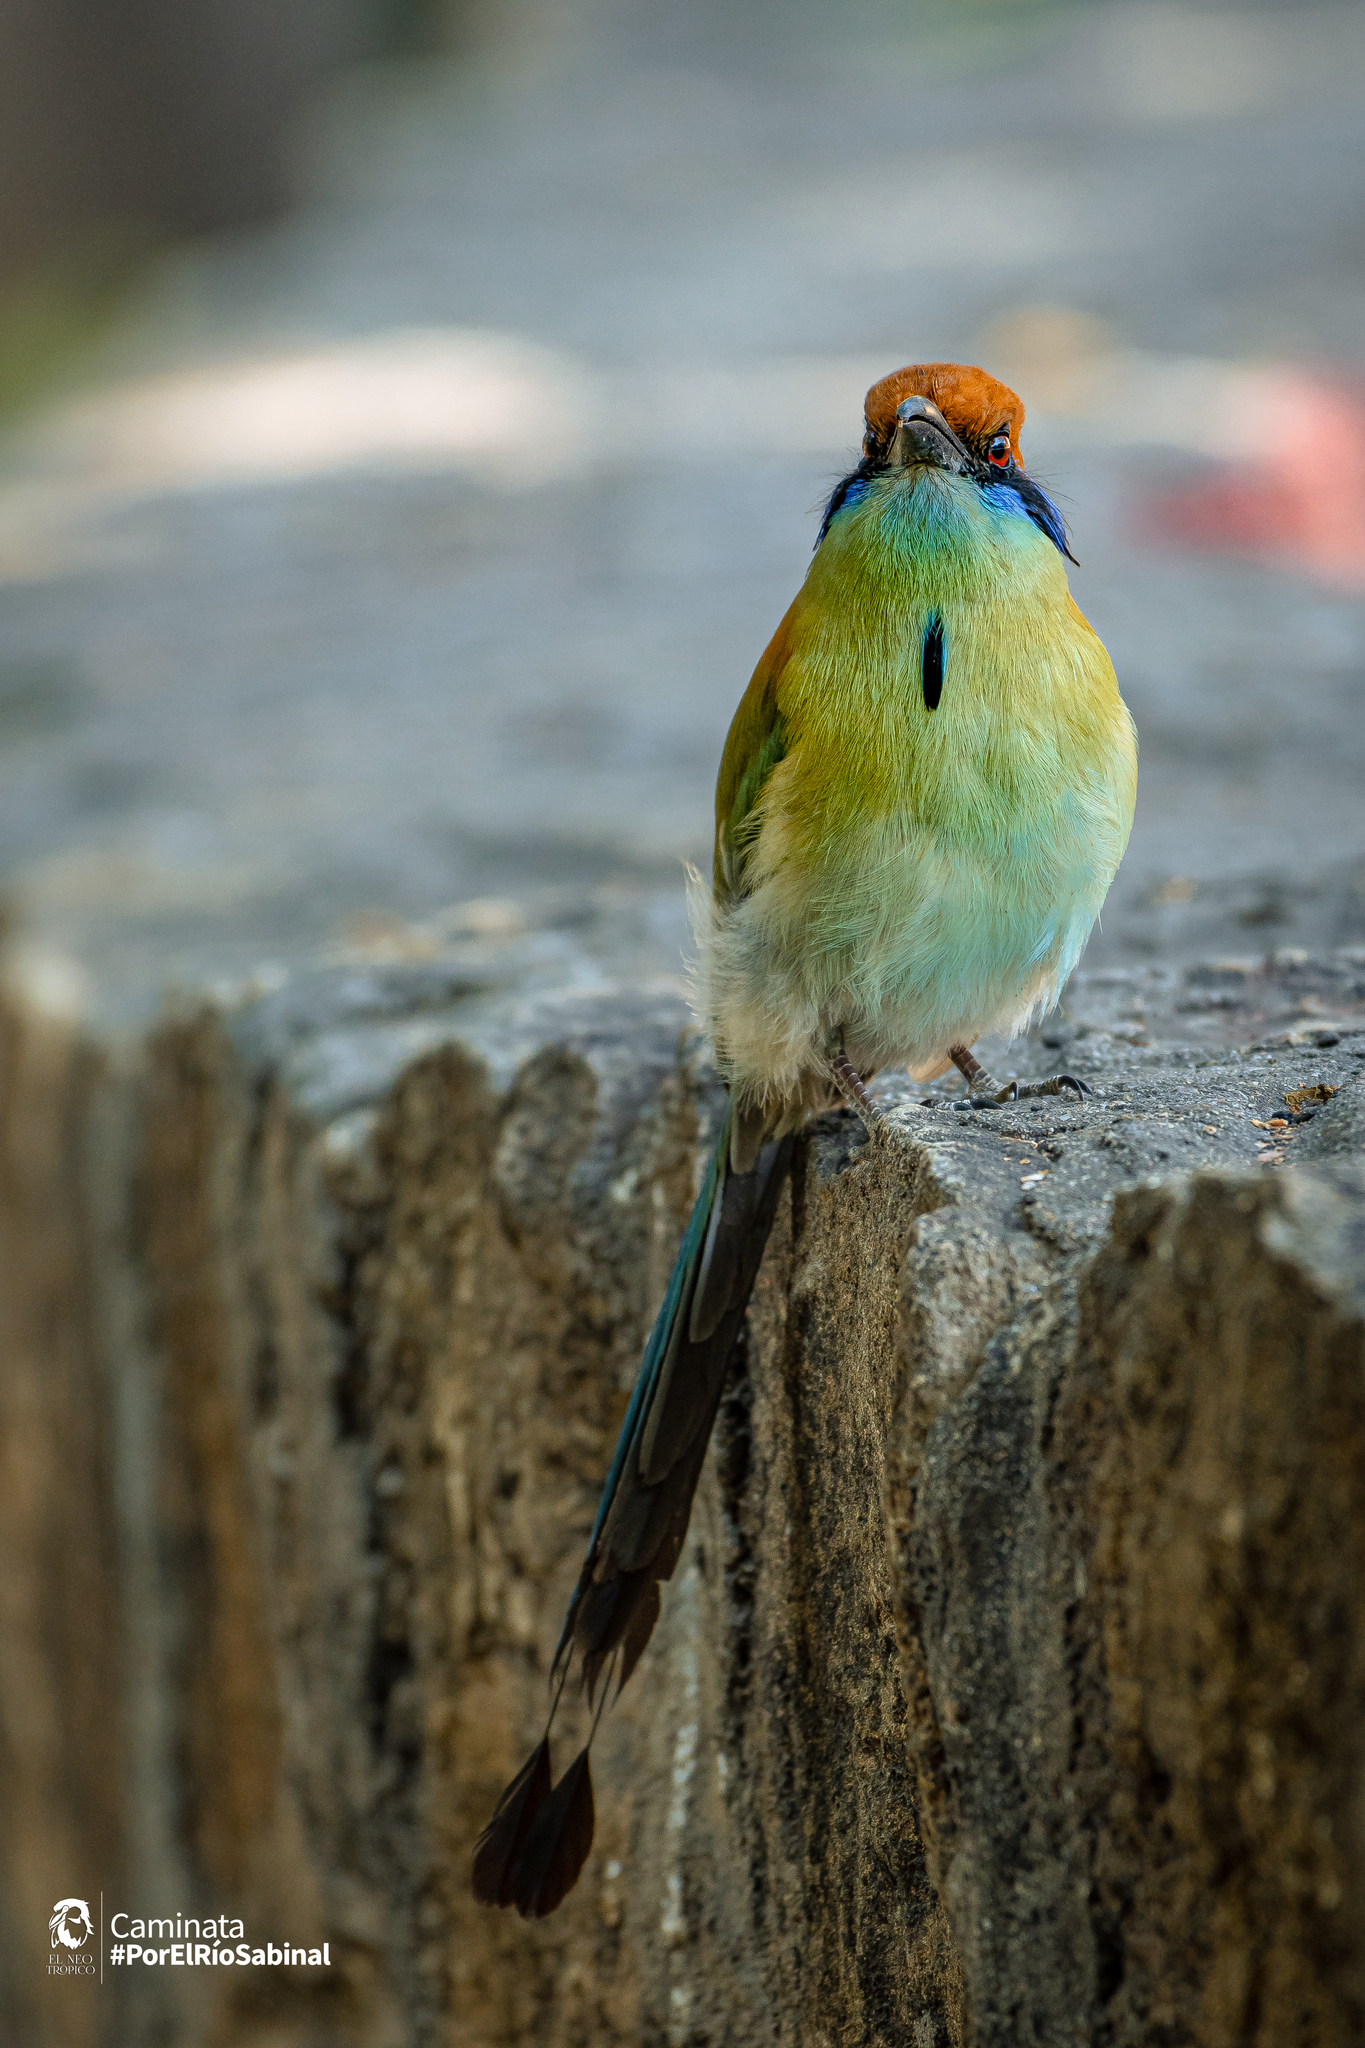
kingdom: Animalia
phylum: Chordata
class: Aves
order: Coraciiformes
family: Momotidae
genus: Momotus
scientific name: Momotus mexicanus
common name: Russet-crowned motmot
